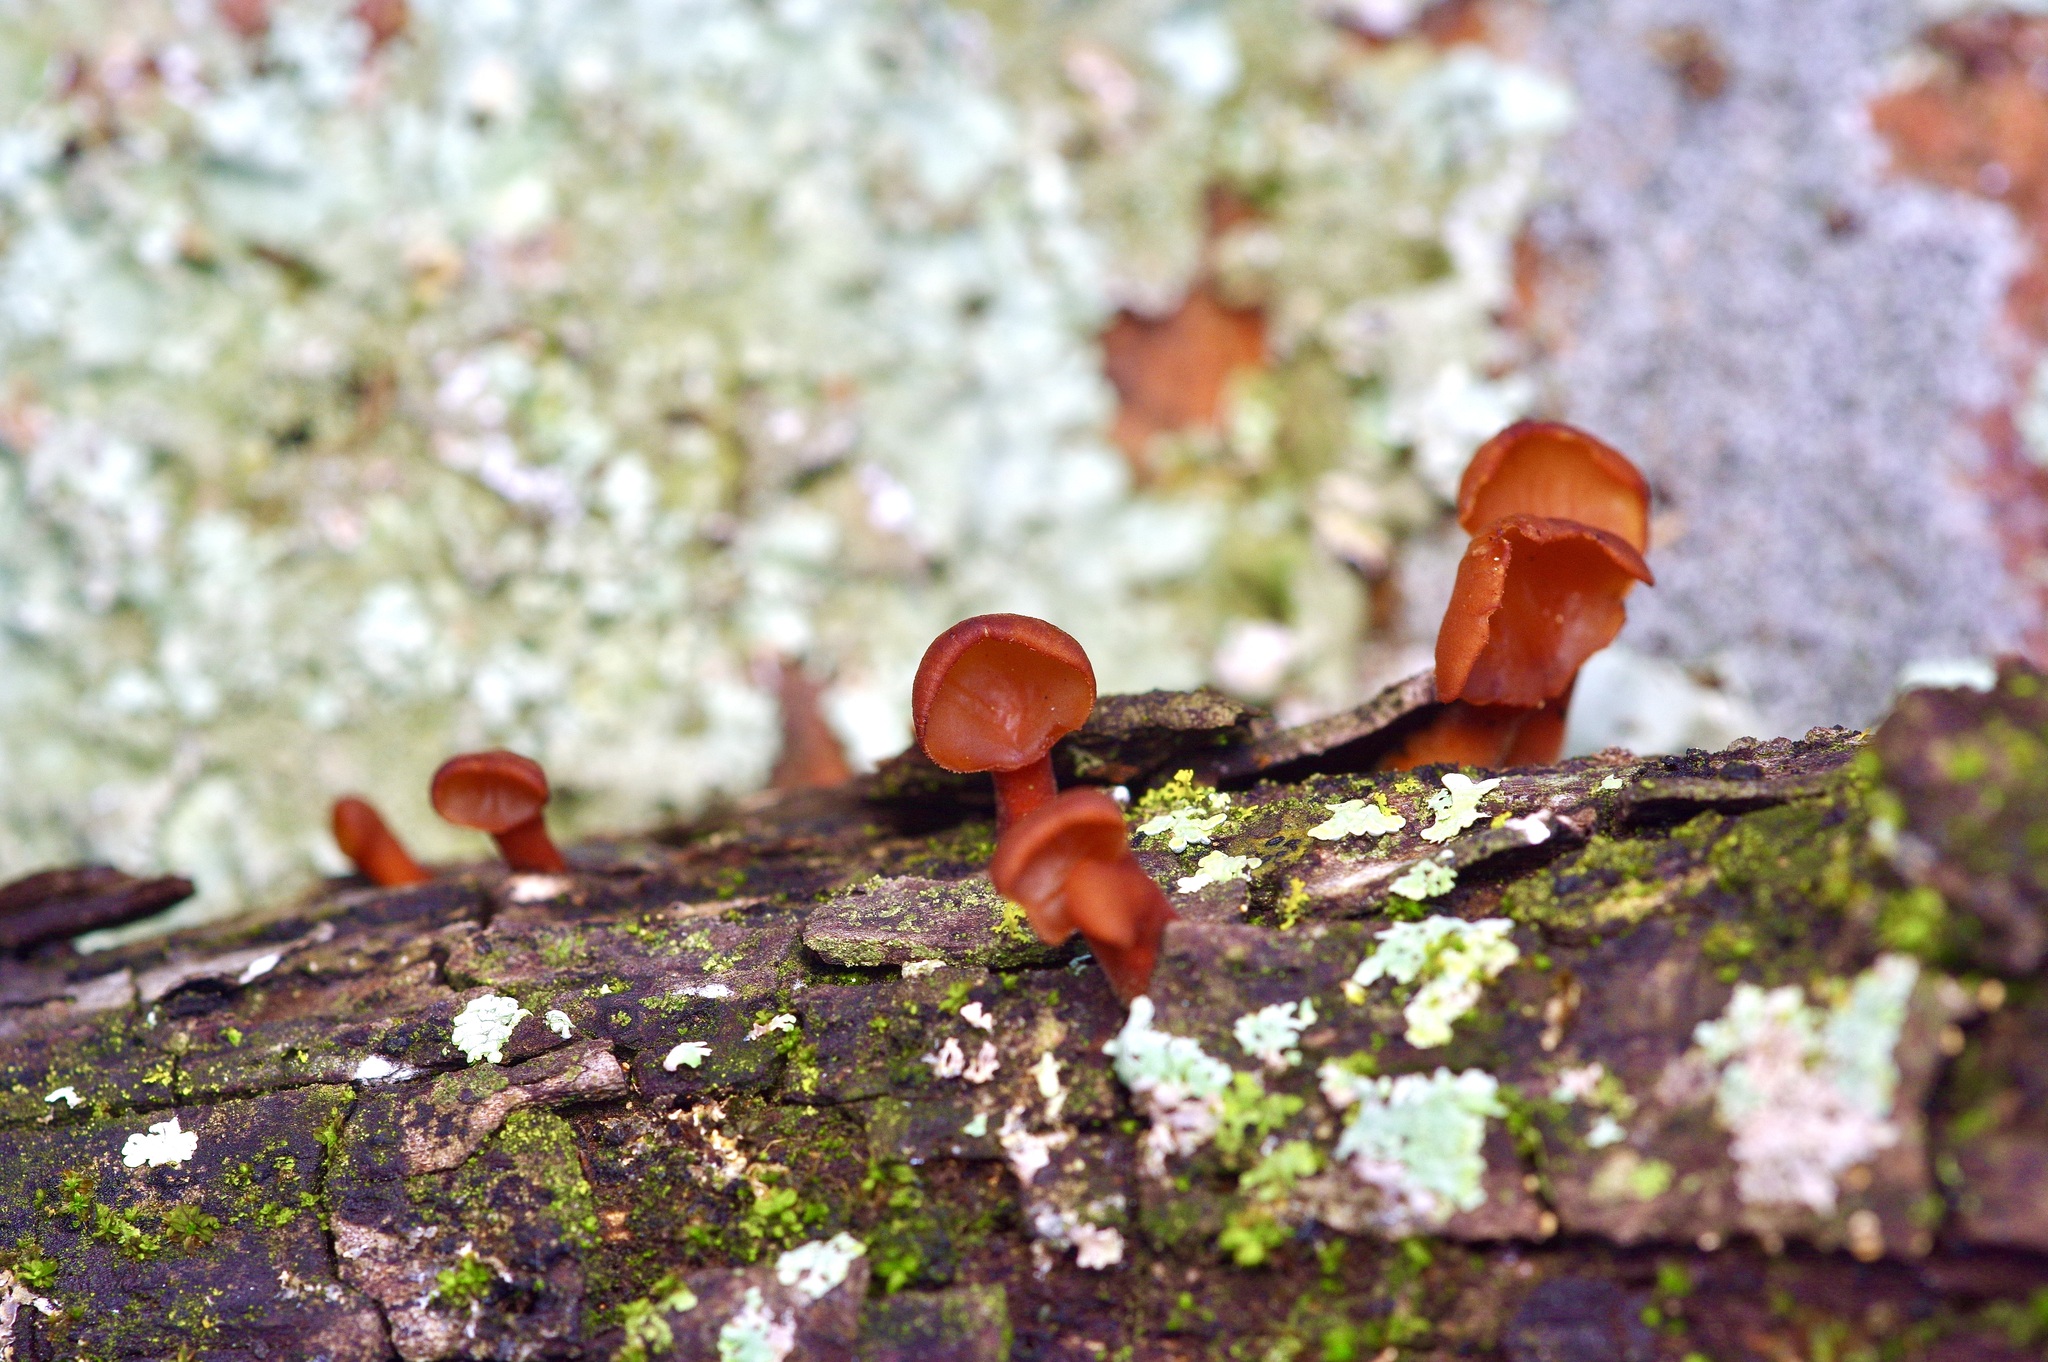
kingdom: Fungi
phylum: Basidiomycota
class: Dacrymycetes
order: Dacrymycetales
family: Dacrymycetaceae
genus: Dacryopinax
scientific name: Dacryopinax elegans
